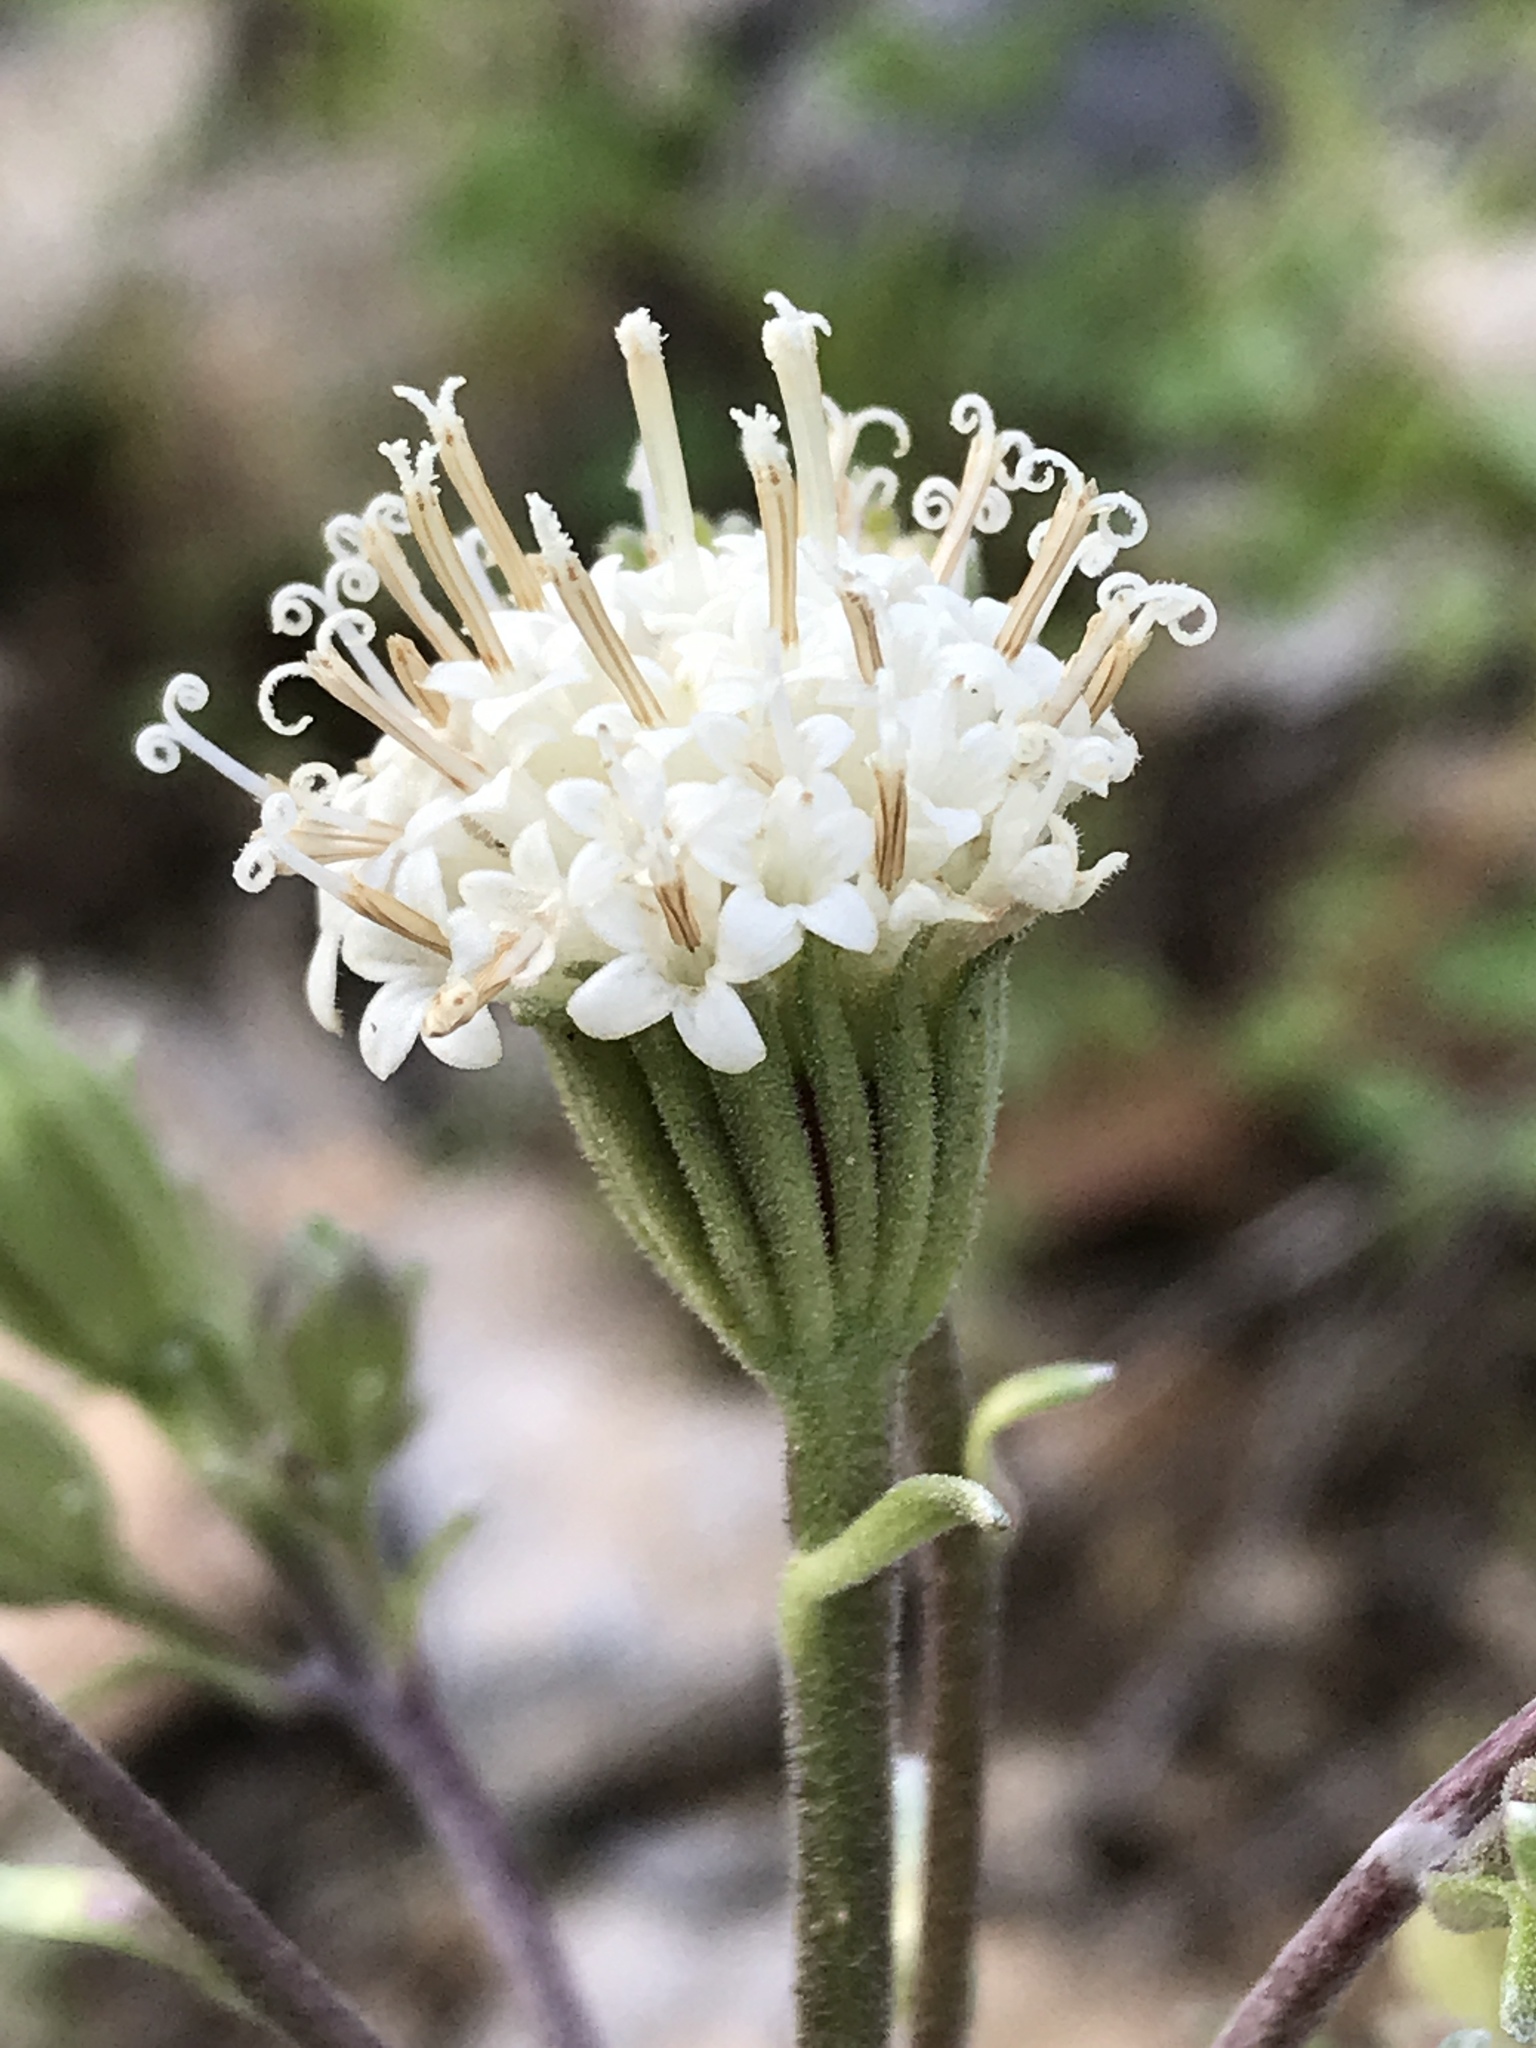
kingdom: Plantae
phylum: Tracheophyta
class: Magnoliopsida
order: Asterales
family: Asteraceae
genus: Chaenactis
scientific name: Chaenactis douglasii
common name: Hoary pincushion
